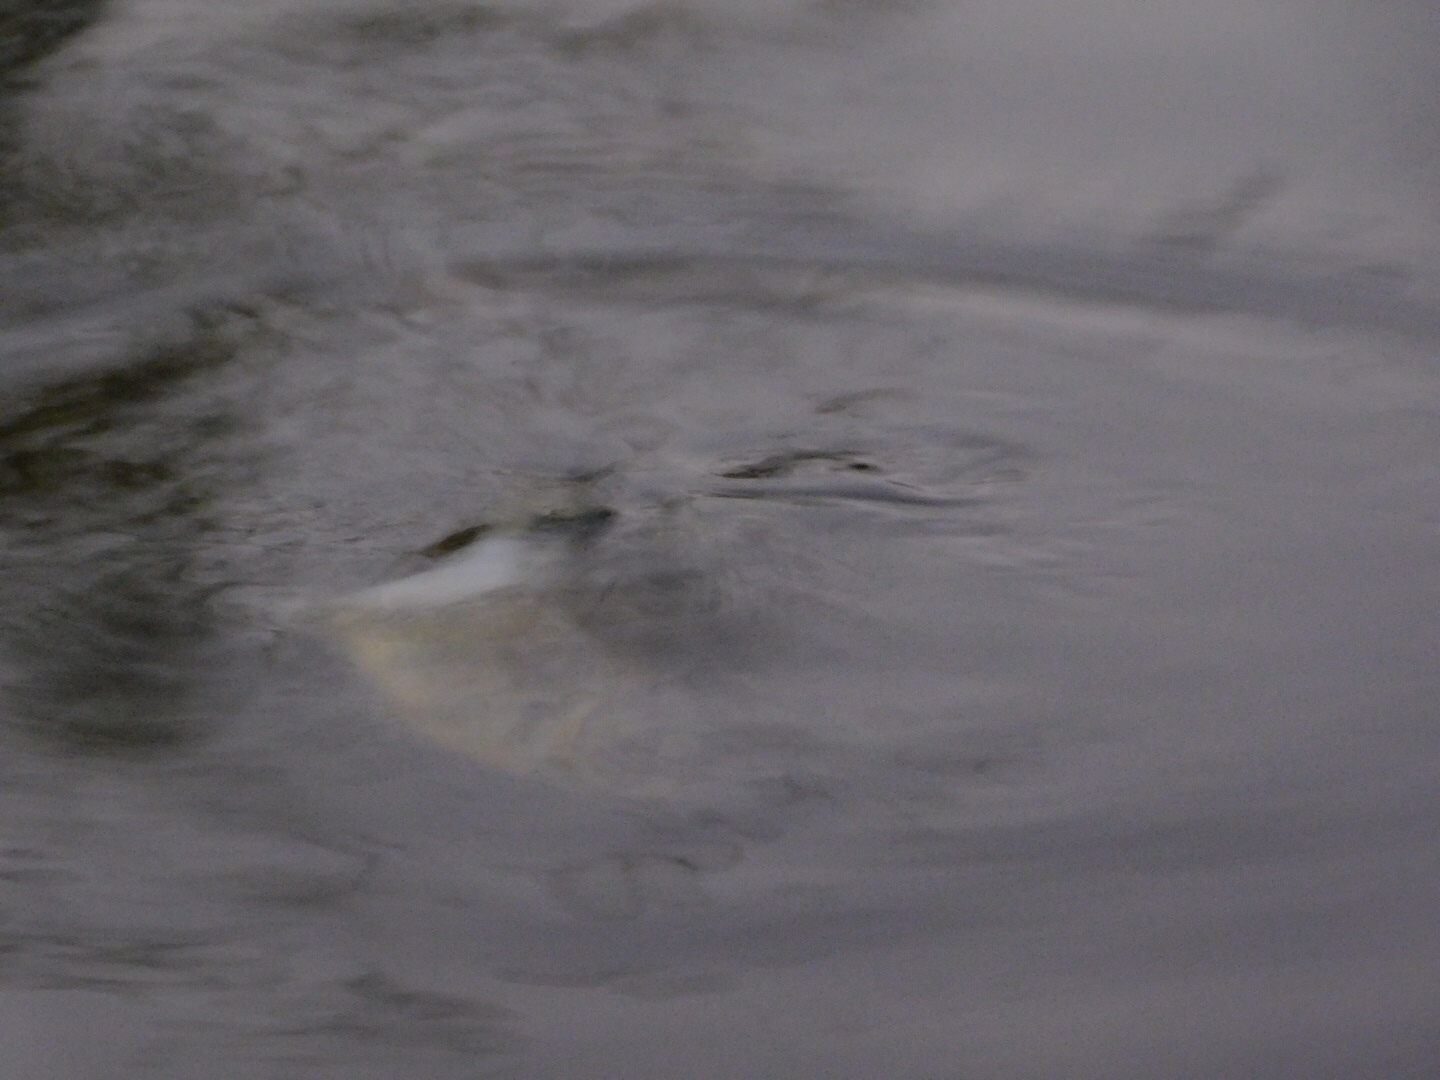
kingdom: Animalia
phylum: Chordata
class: Testudines
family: Emydidae
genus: Trachemys
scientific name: Trachemys scripta
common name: Slider
